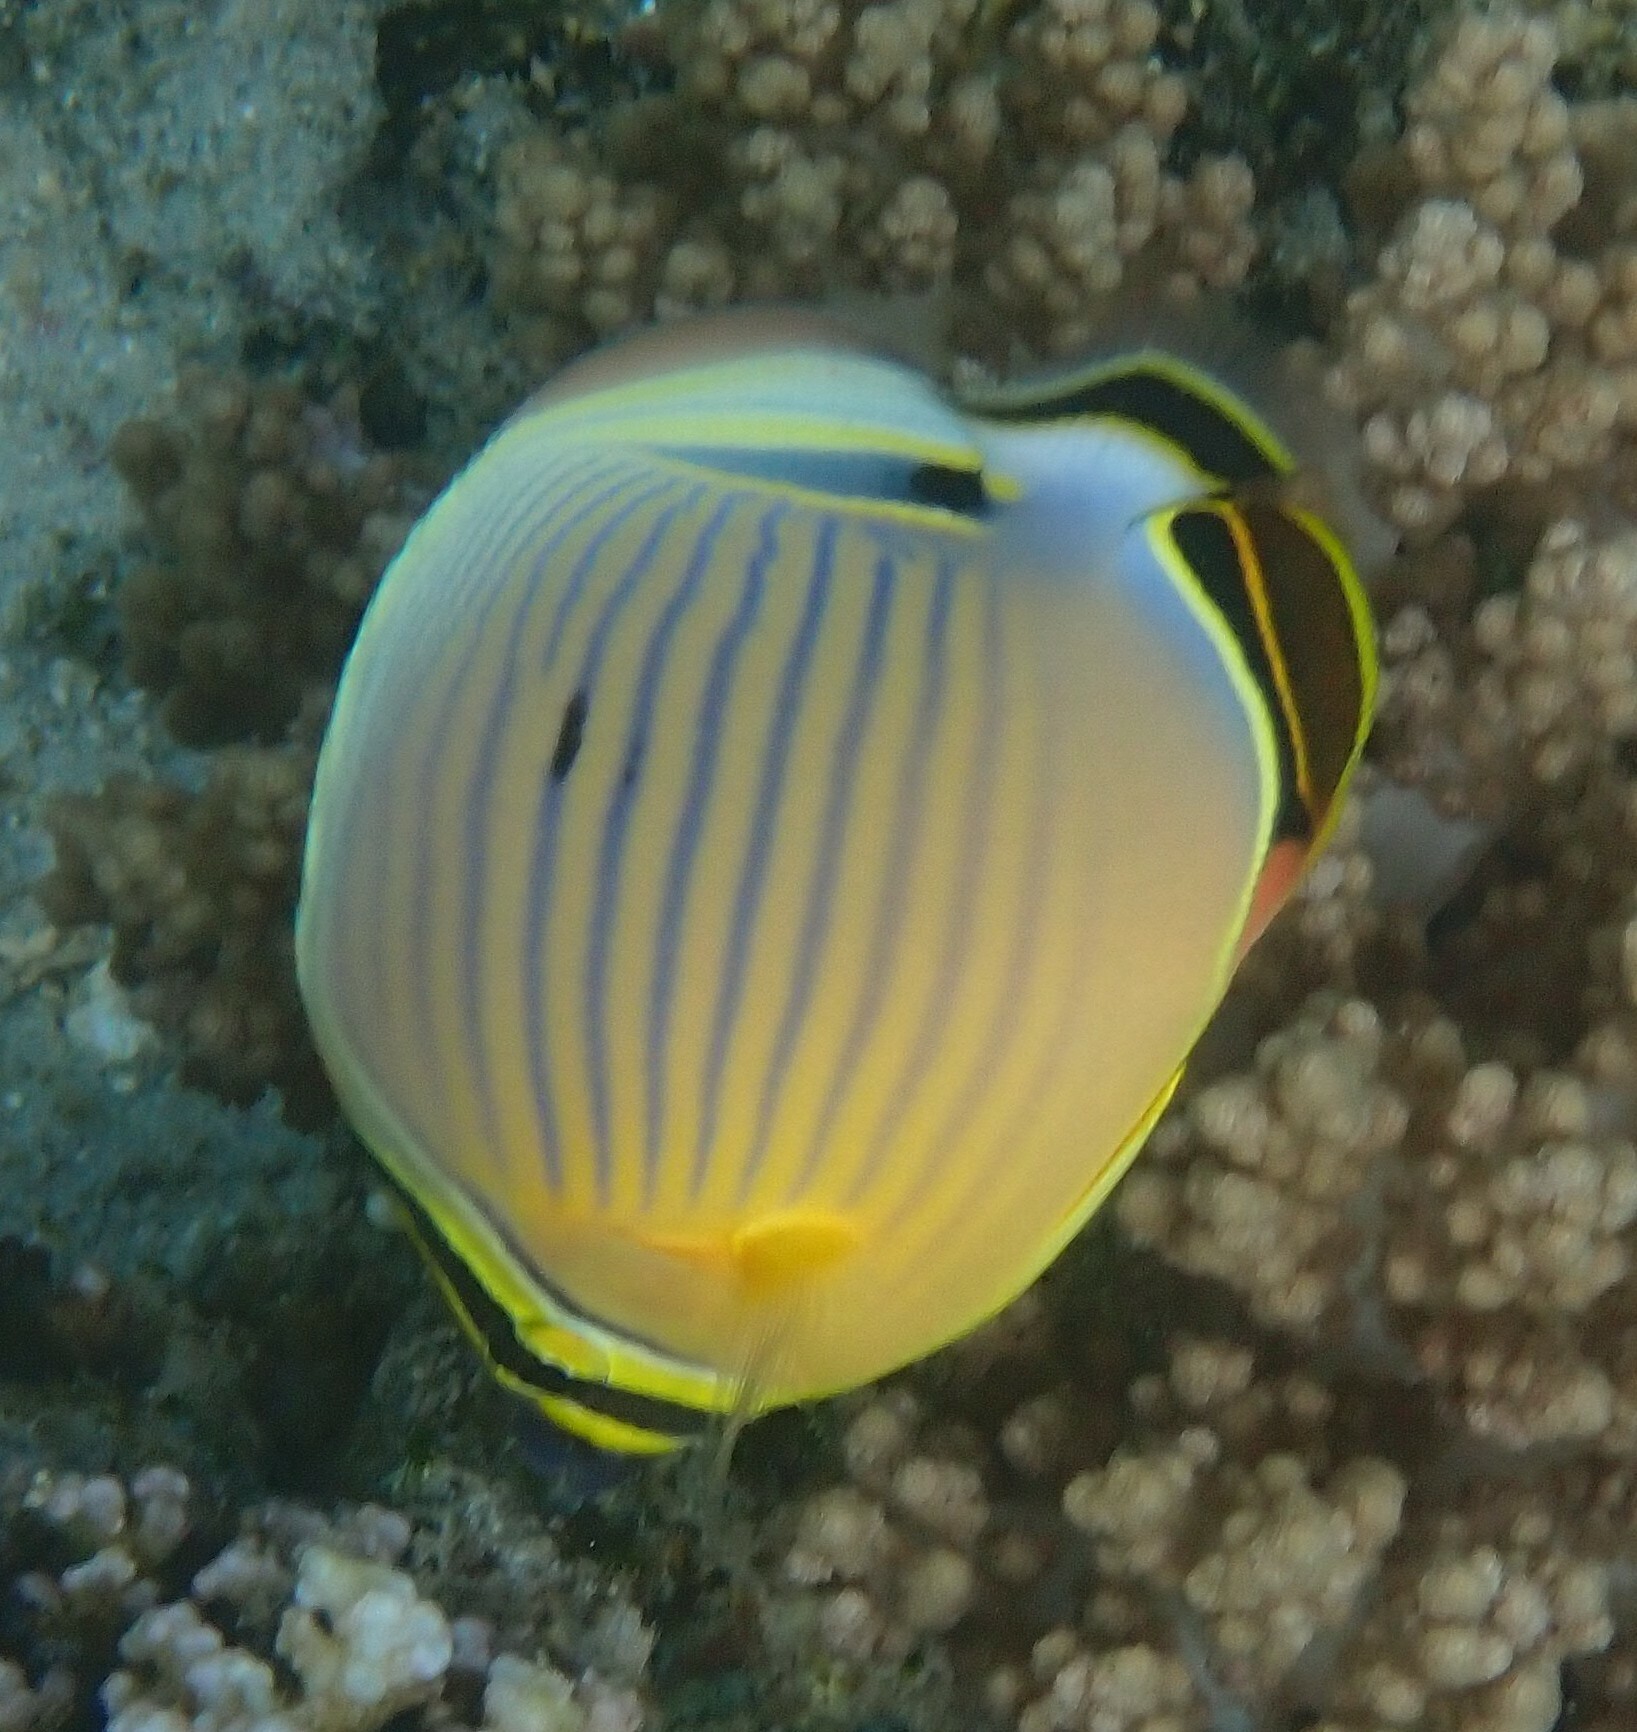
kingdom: Animalia
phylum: Chordata
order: Perciformes
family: Chaetodontidae
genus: Chaetodon
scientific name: Chaetodon lunulatus
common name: Redfin butterflyfish
